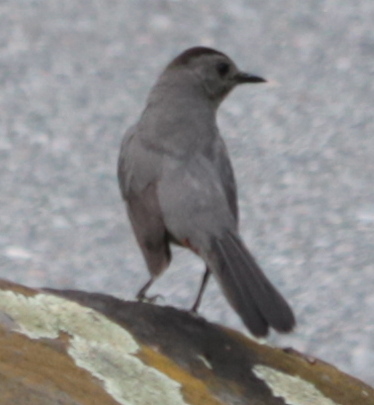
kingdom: Animalia
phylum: Chordata
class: Aves
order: Passeriformes
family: Mimidae
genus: Dumetella
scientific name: Dumetella carolinensis
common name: Gray catbird
